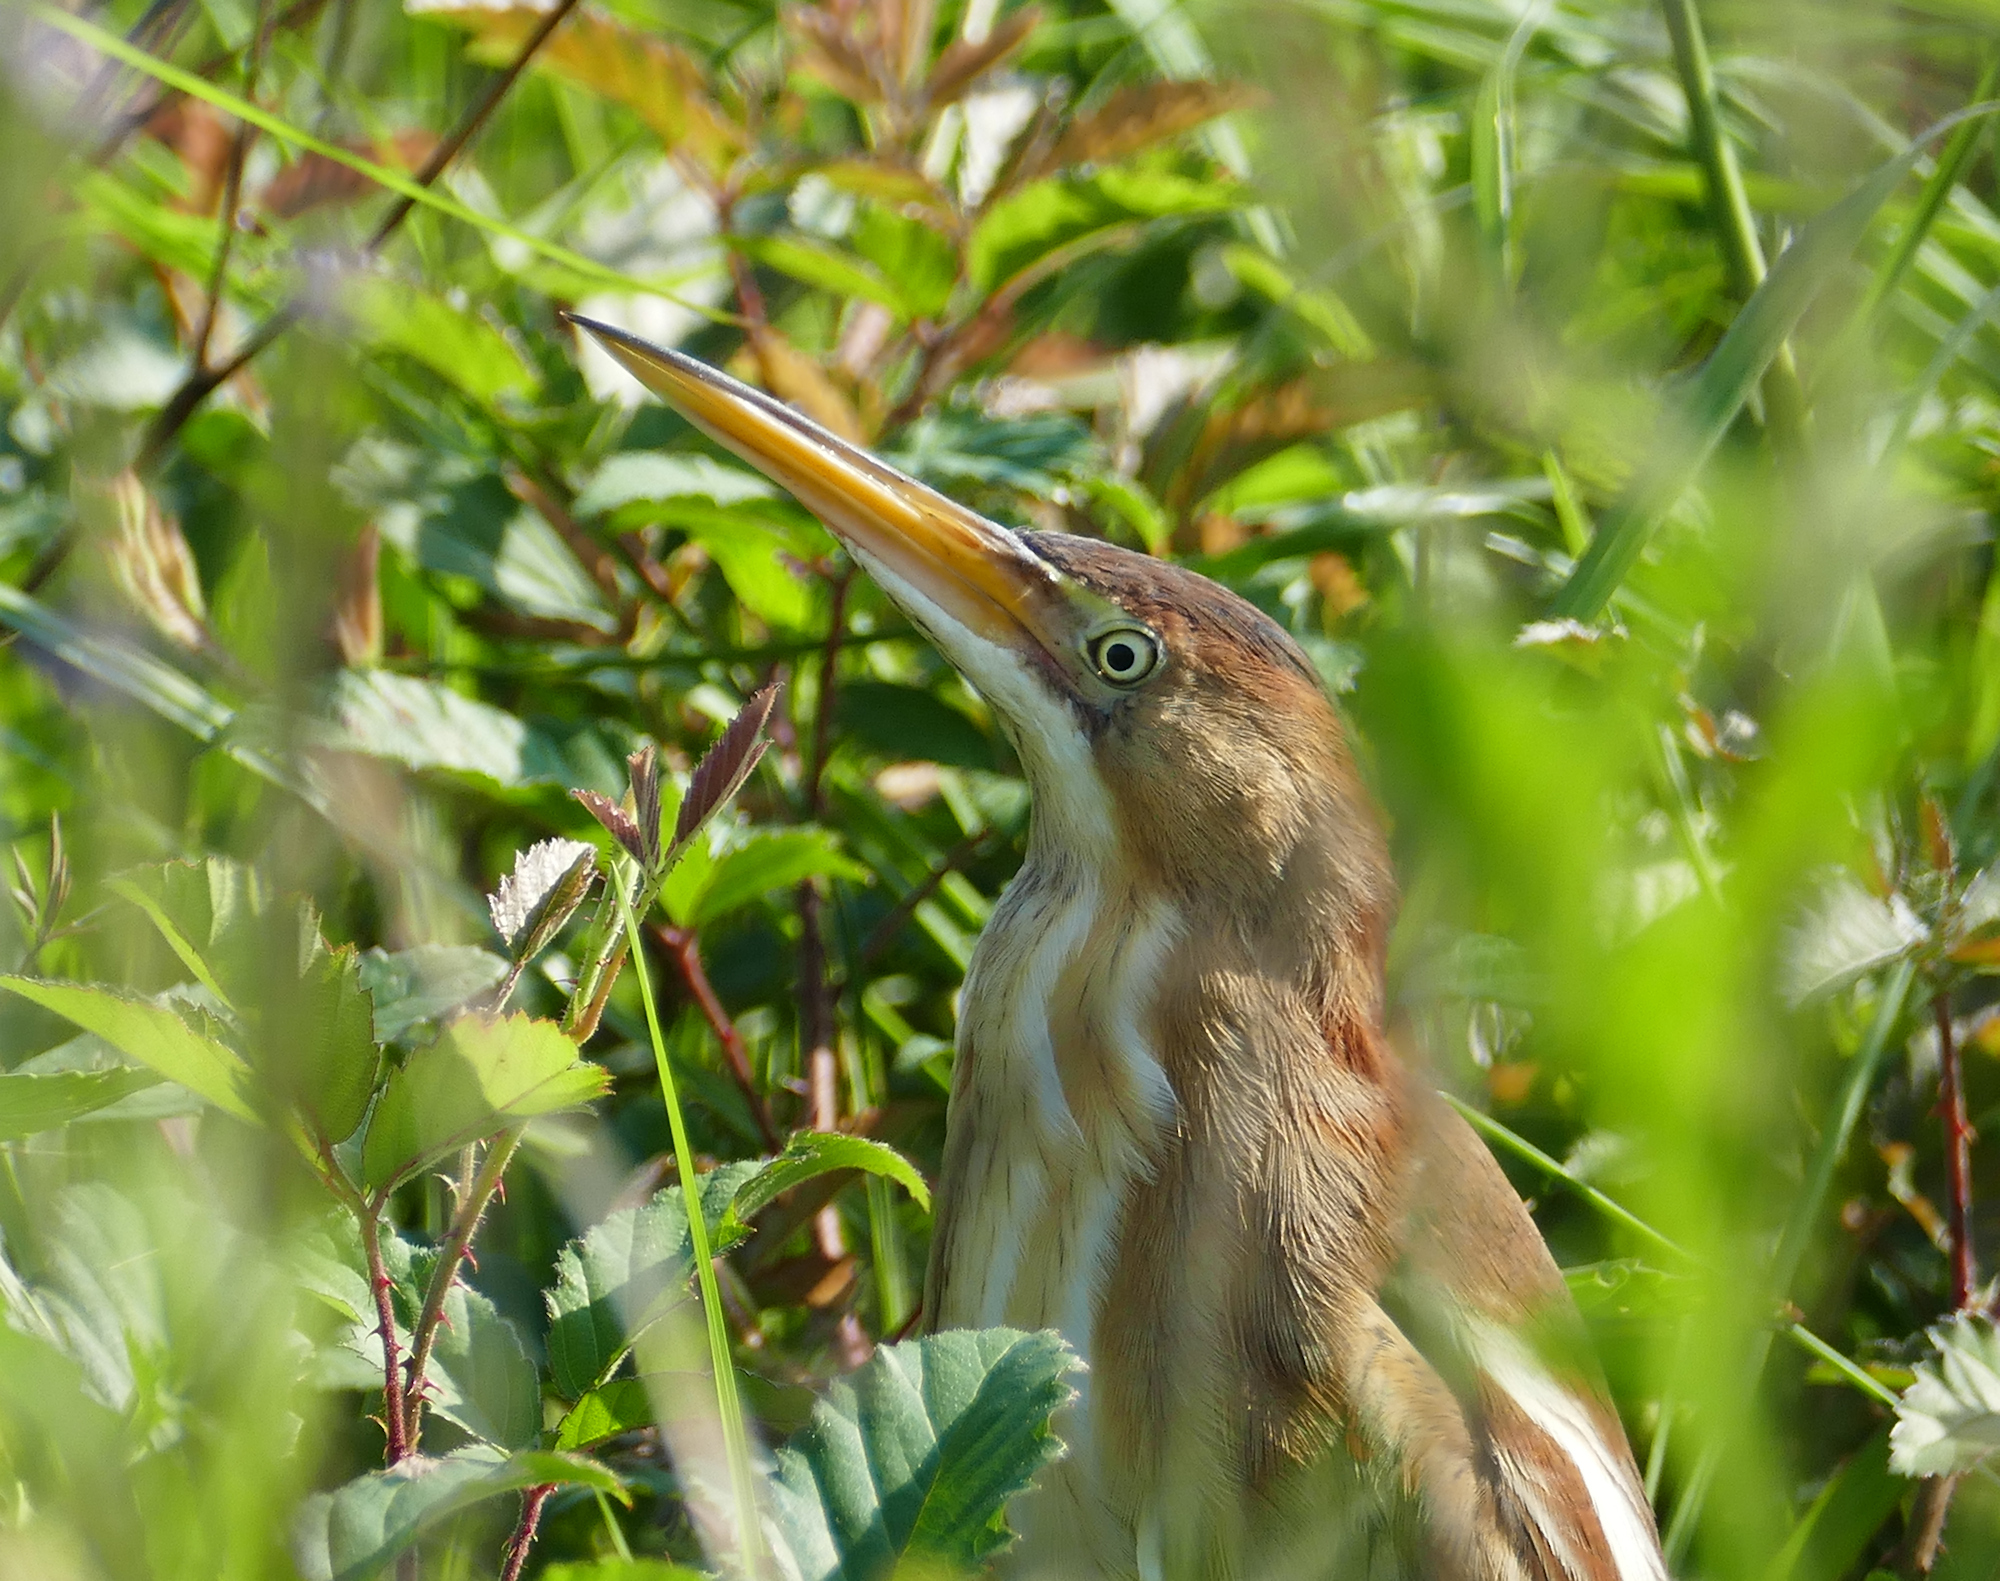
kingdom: Animalia
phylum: Chordata
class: Aves
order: Pelecaniformes
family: Ardeidae
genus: Ixobrychus
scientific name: Ixobrychus exilis
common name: Least bittern
